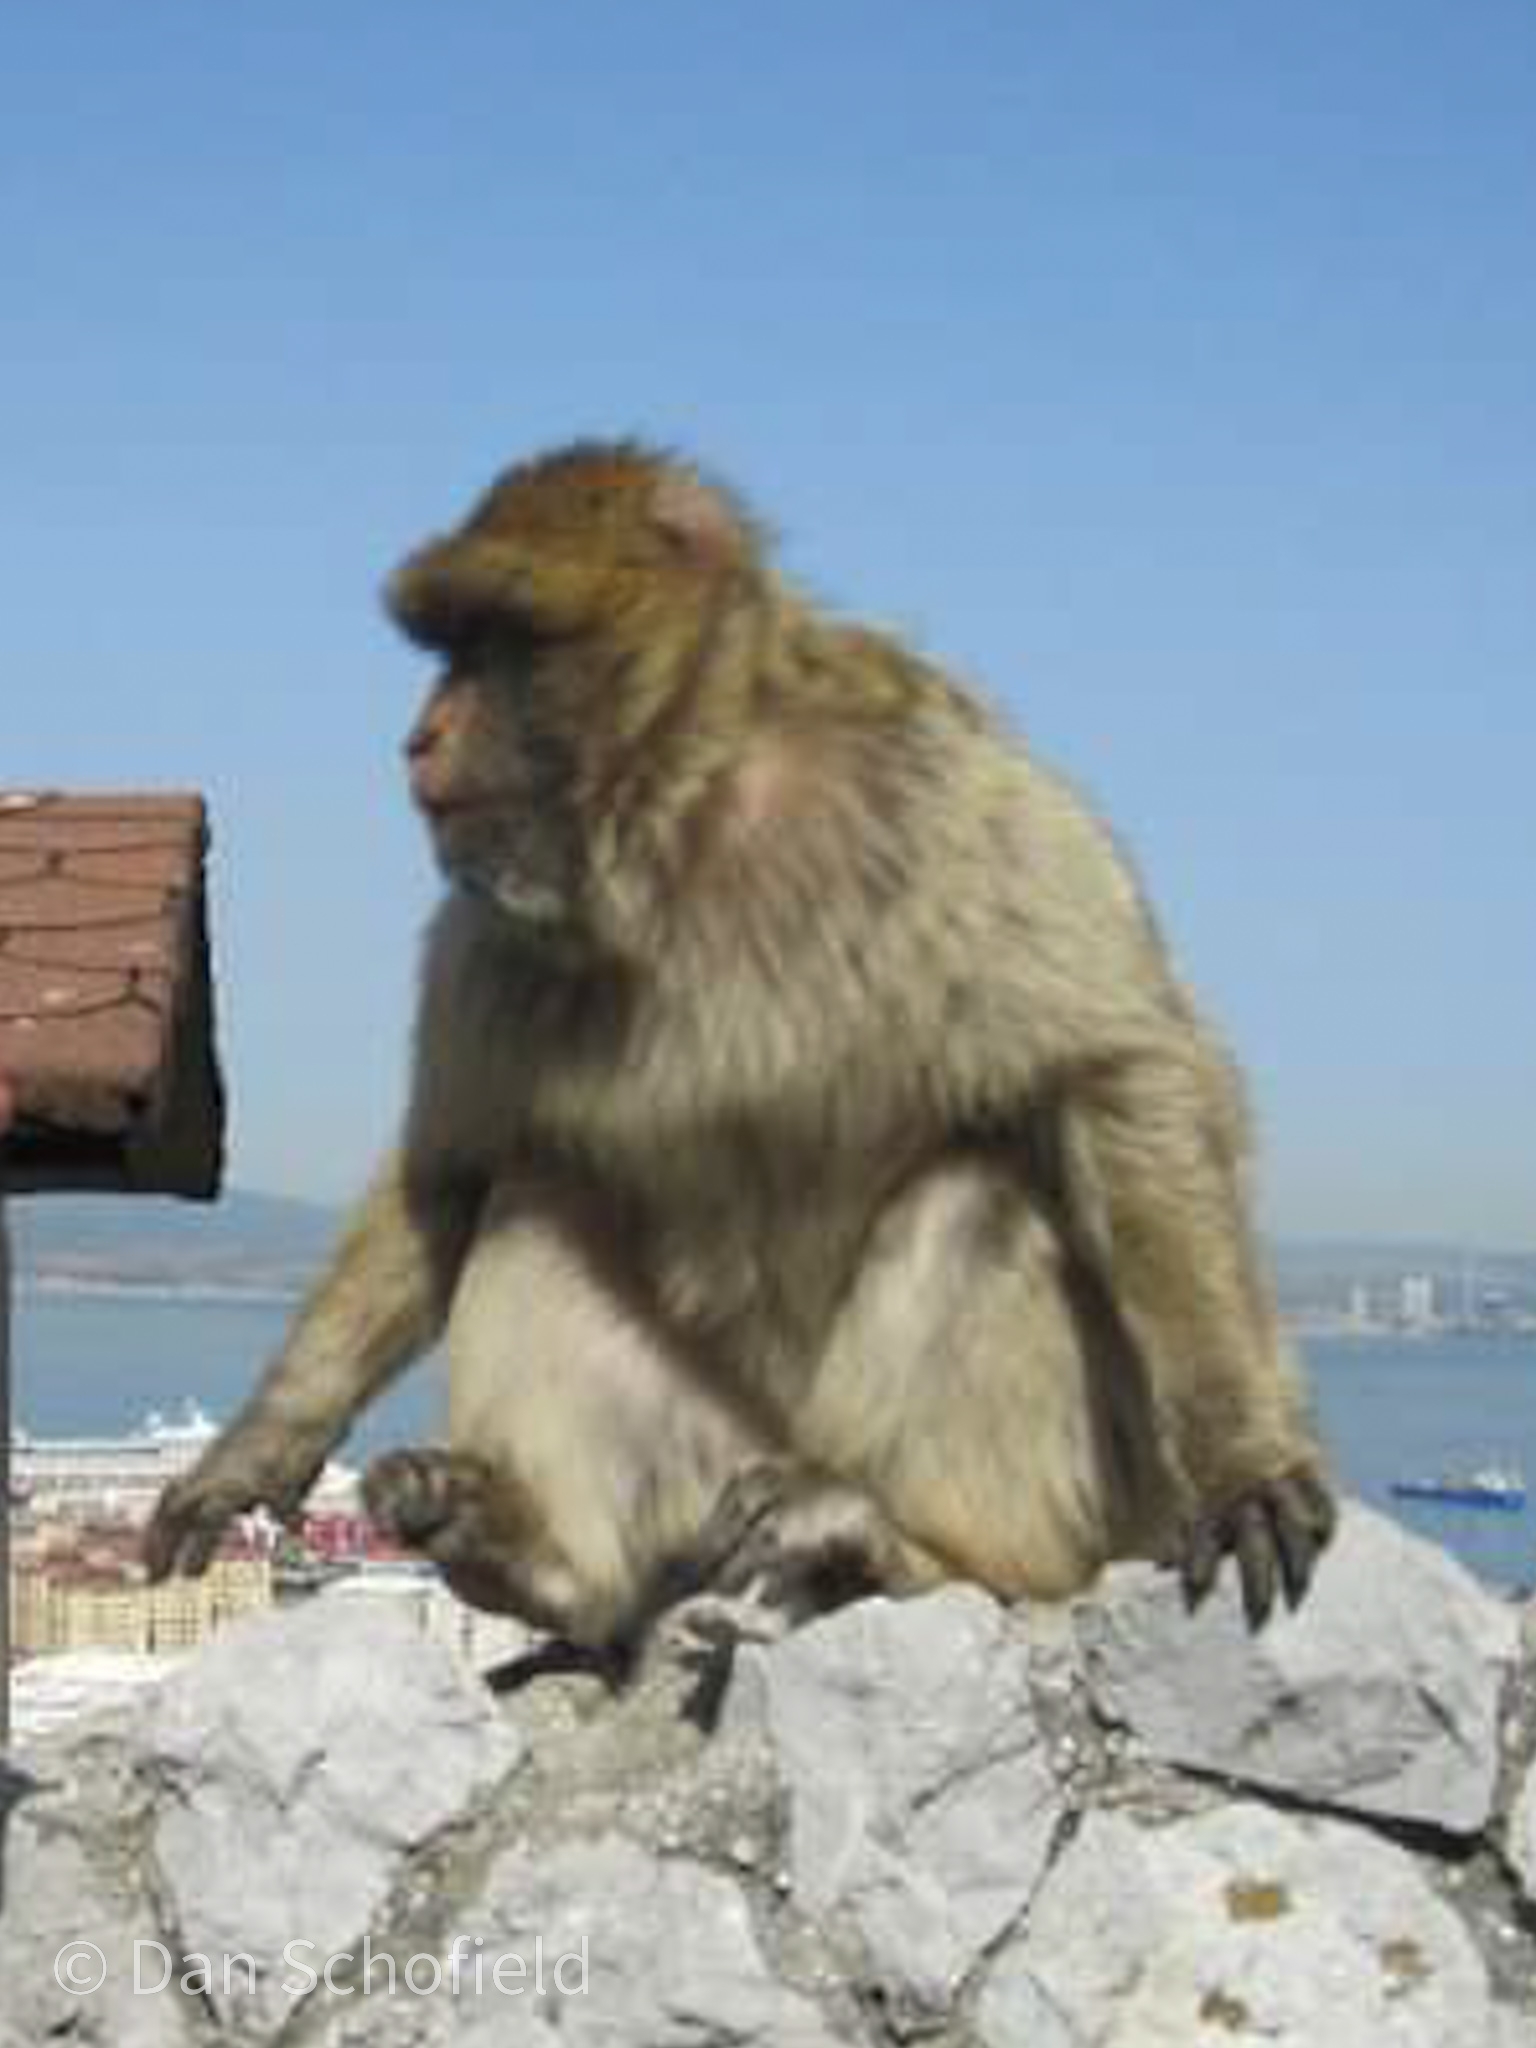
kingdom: Animalia
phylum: Chordata
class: Mammalia
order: Primates
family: Cercopithecidae
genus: Macaca
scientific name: Macaca sylvanus
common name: Barbary macaque
